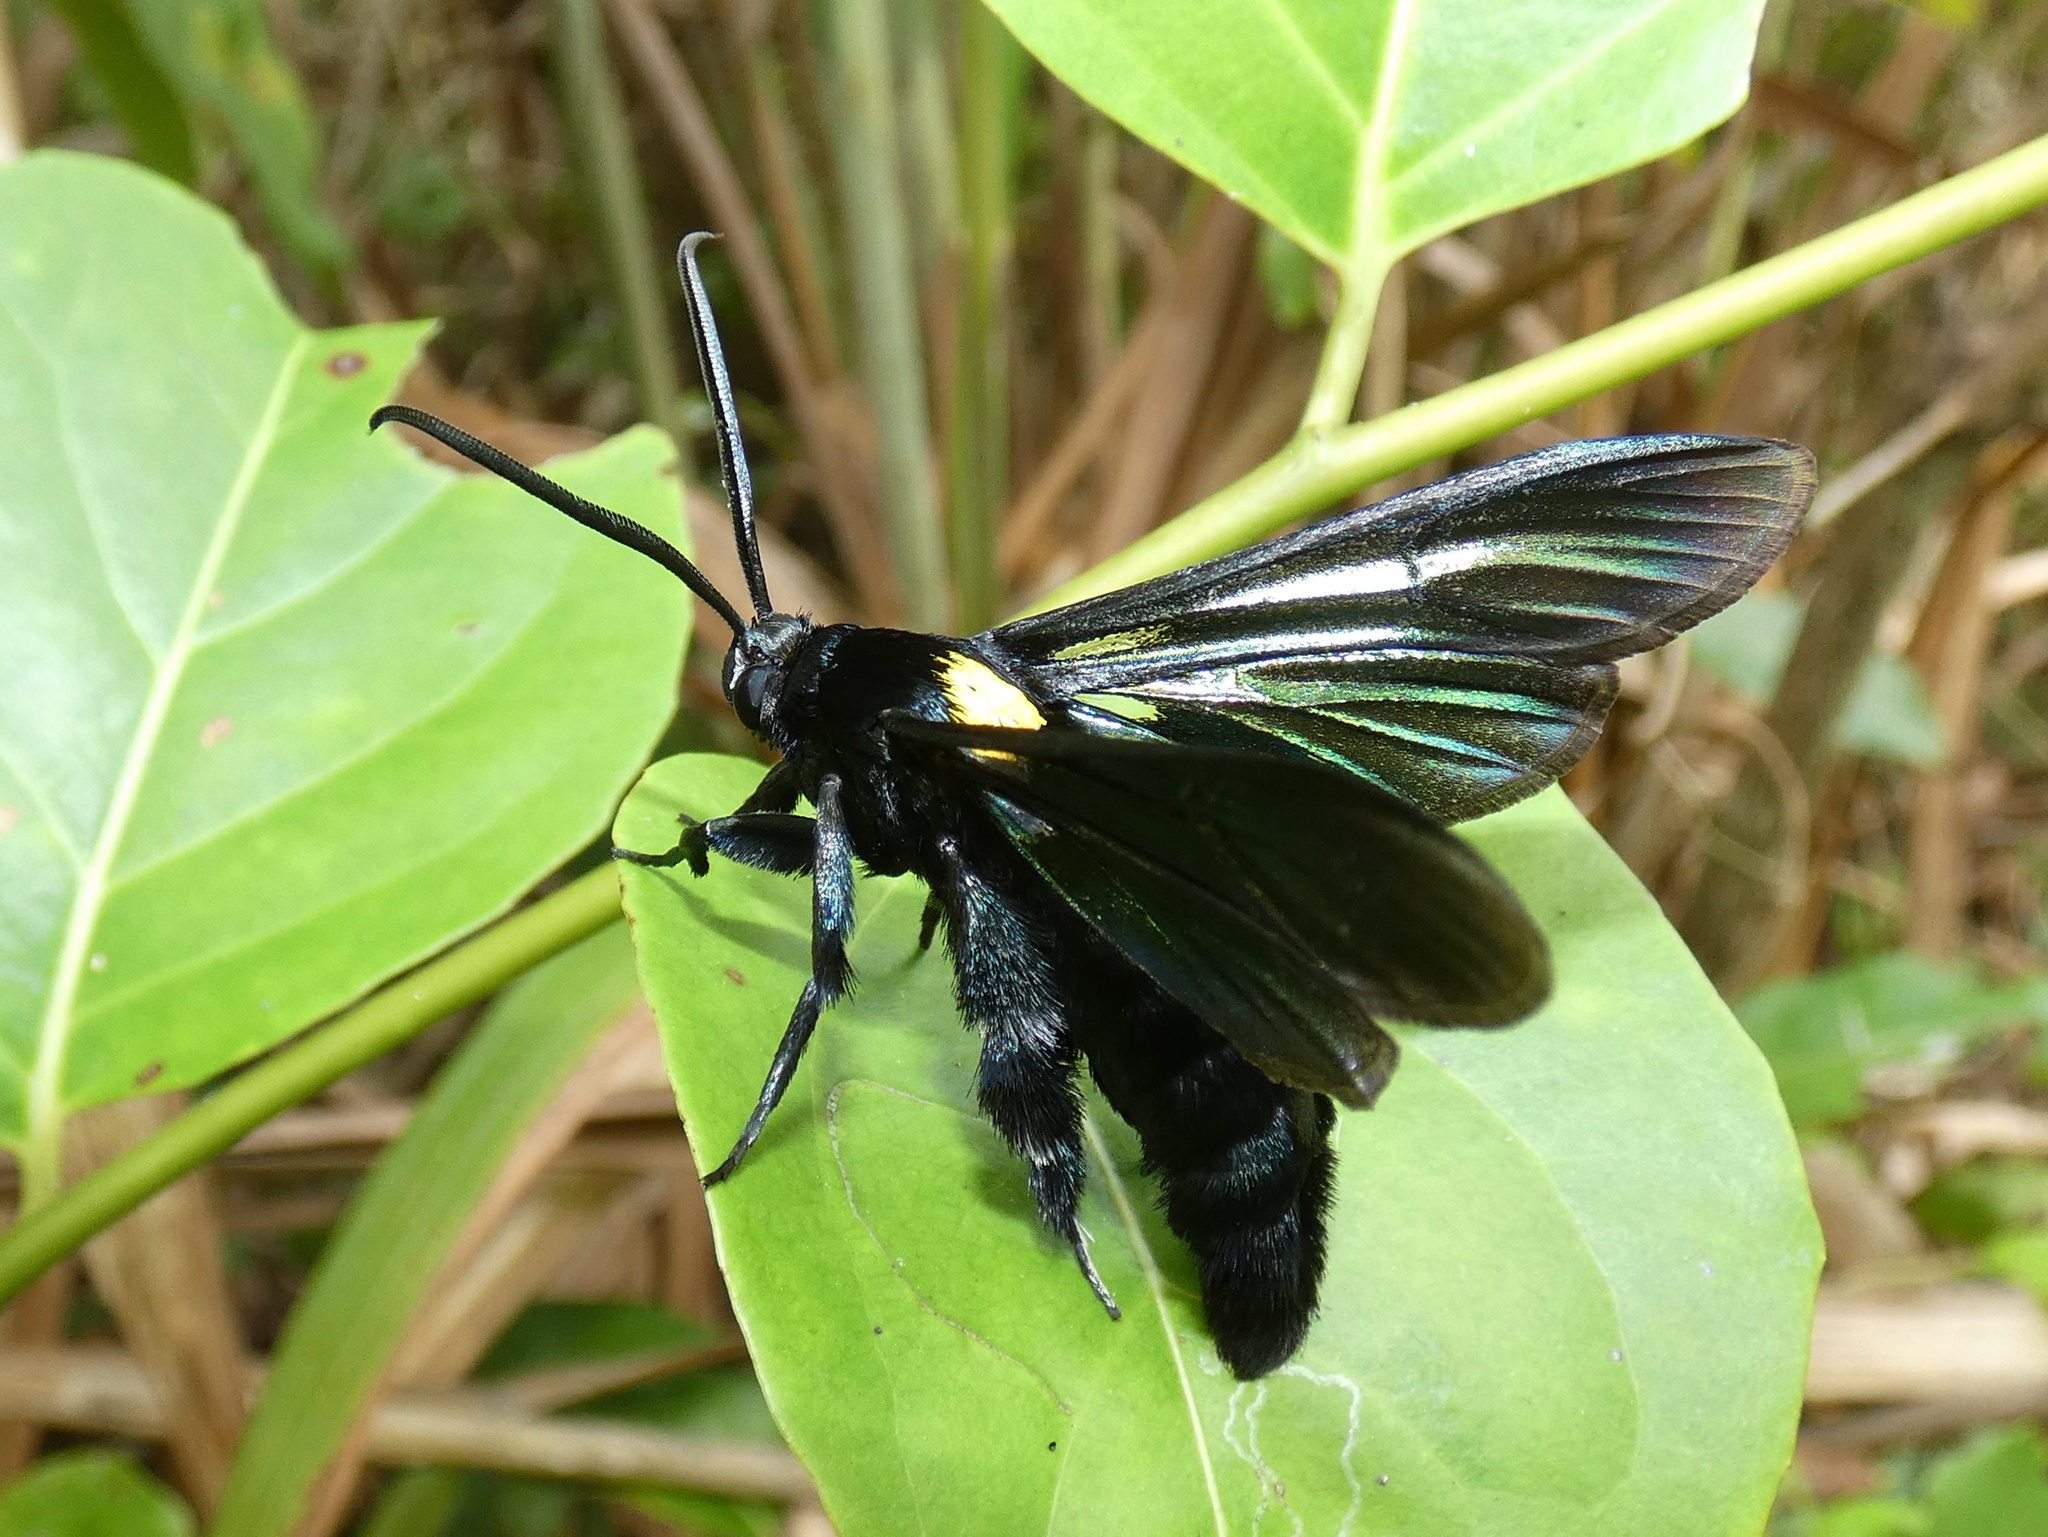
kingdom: Animalia
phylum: Arthropoda
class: Insecta
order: Lepidoptera
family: Sesiidae
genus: Trilochana
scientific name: Trilochana triscoliopsis
